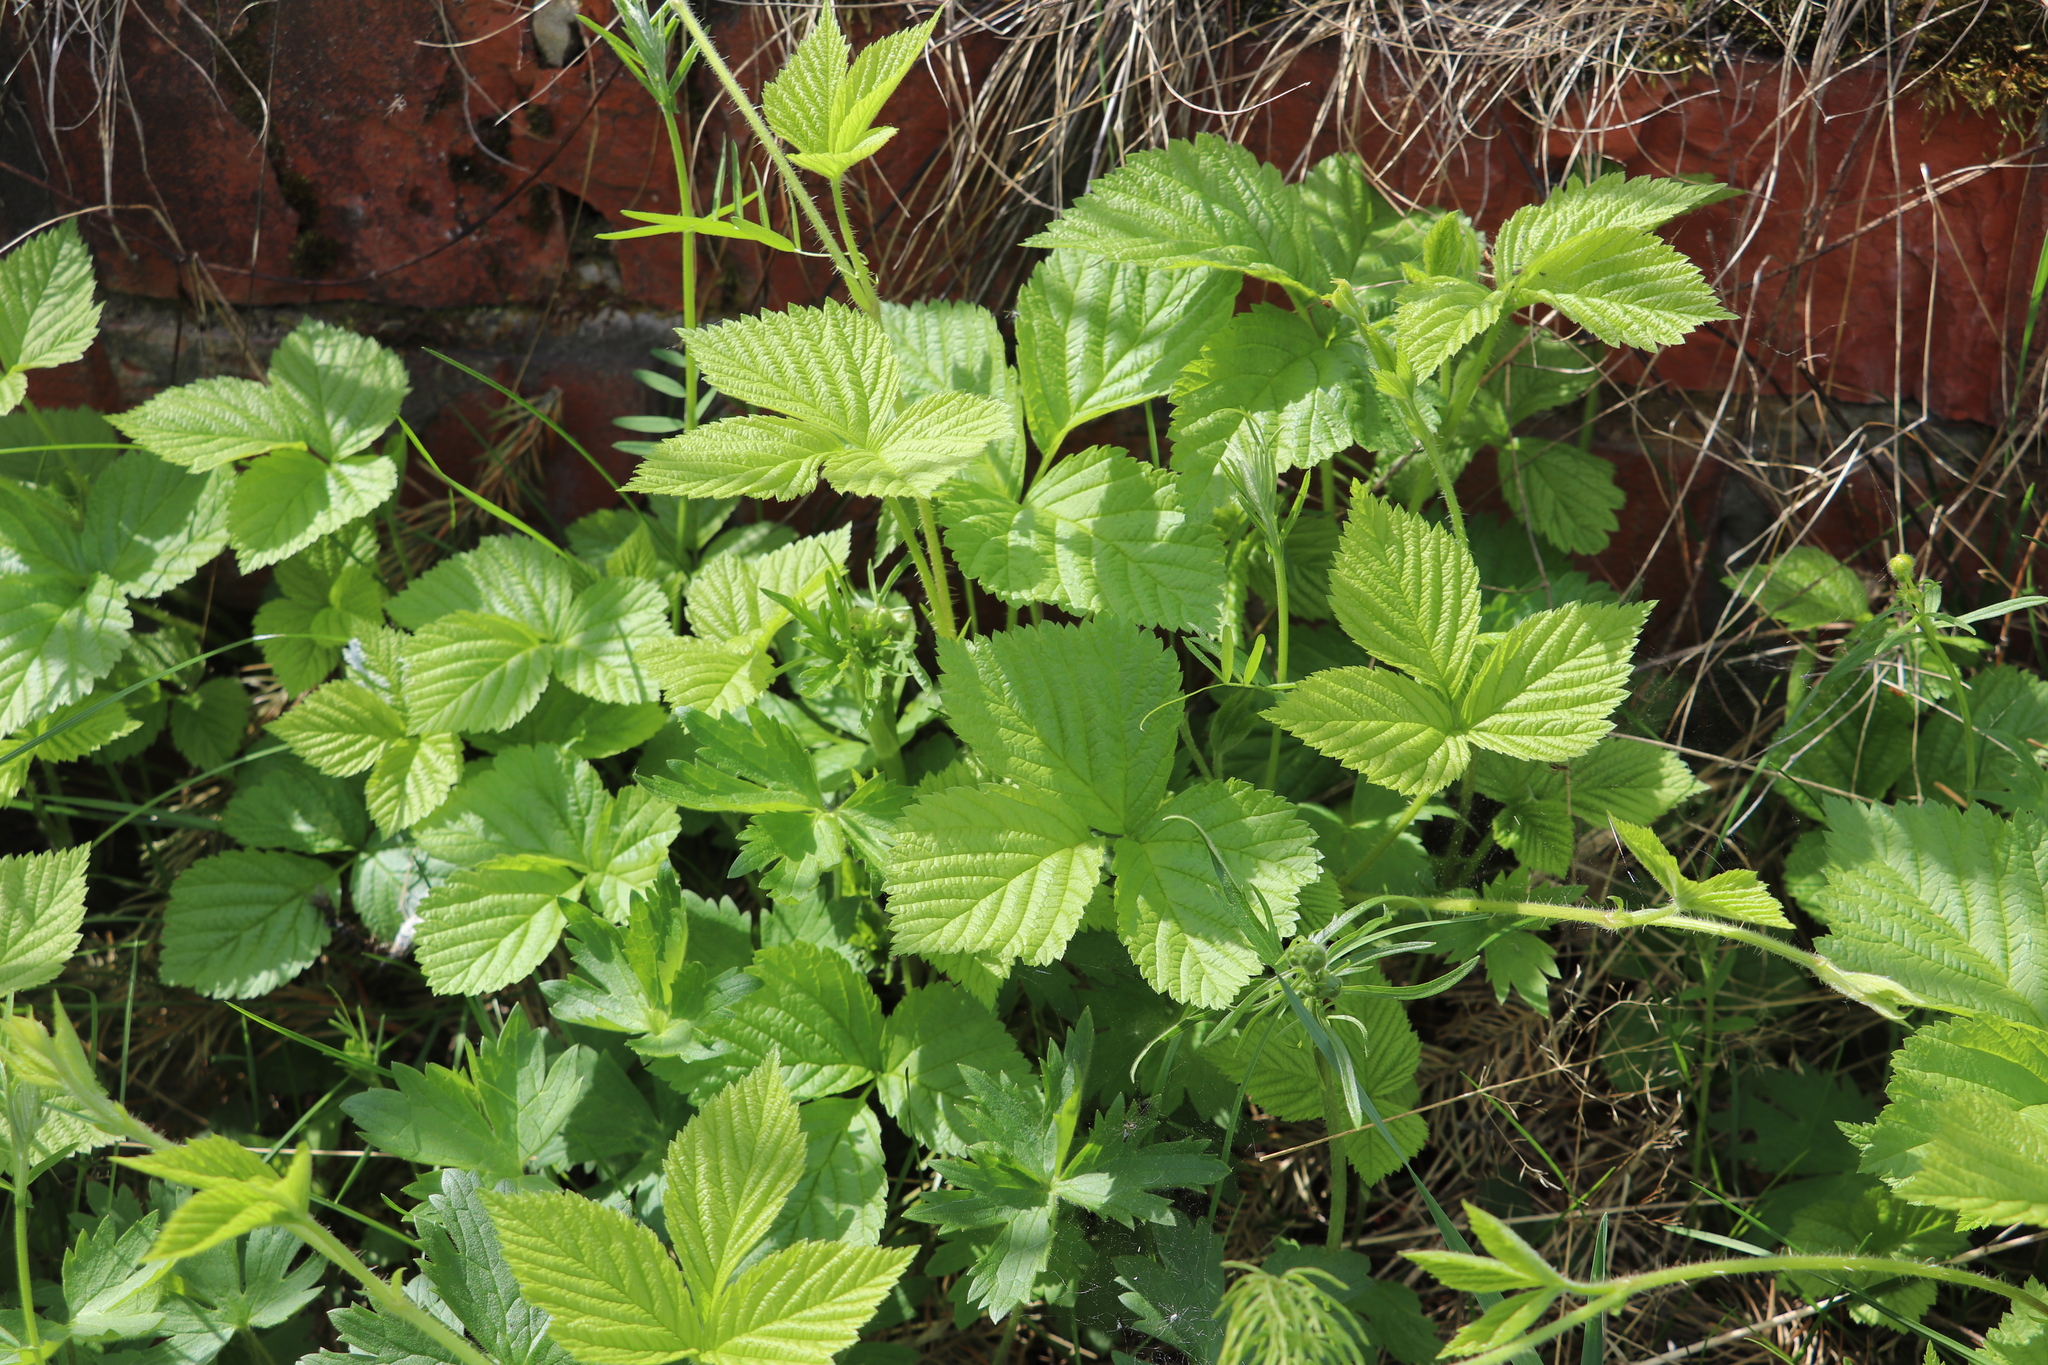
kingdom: Plantae
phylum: Tracheophyta
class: Magnoliopsida
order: Rosales
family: Rosaceae
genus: Rubus
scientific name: Rubus saxatilis
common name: Stone bramble
